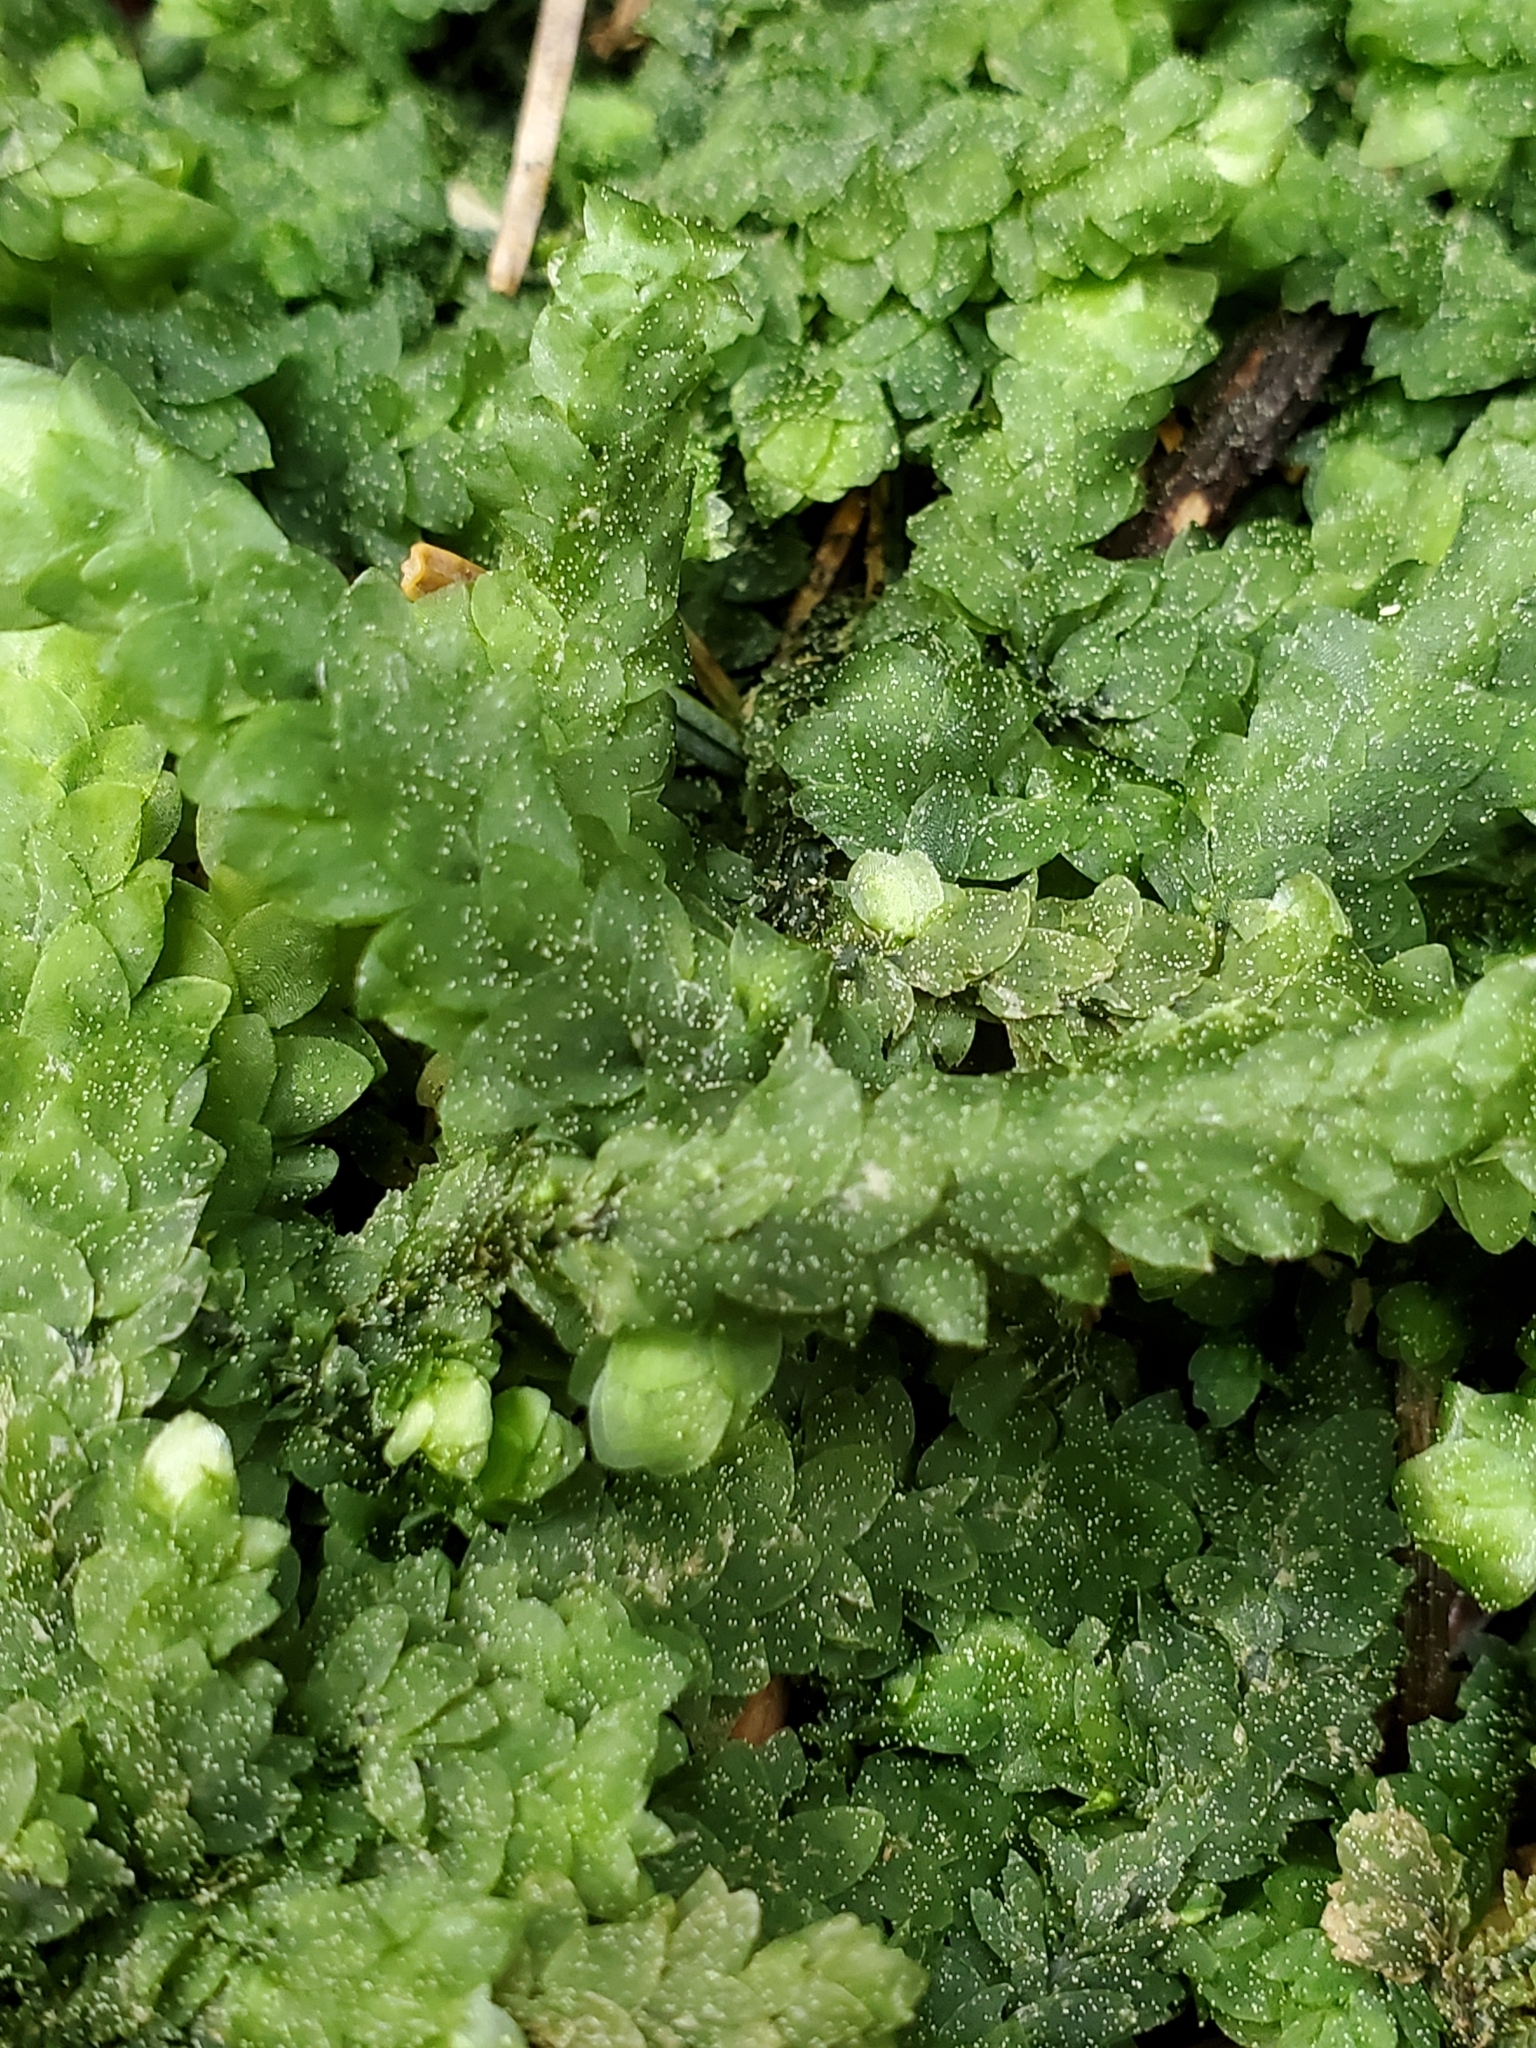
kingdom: Plantae
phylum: Bryophyta
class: Bryopsida
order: Hookeriales
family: Hookeriaceae
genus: Hookeria
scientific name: Hookeria lucens
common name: Shining hookeria
